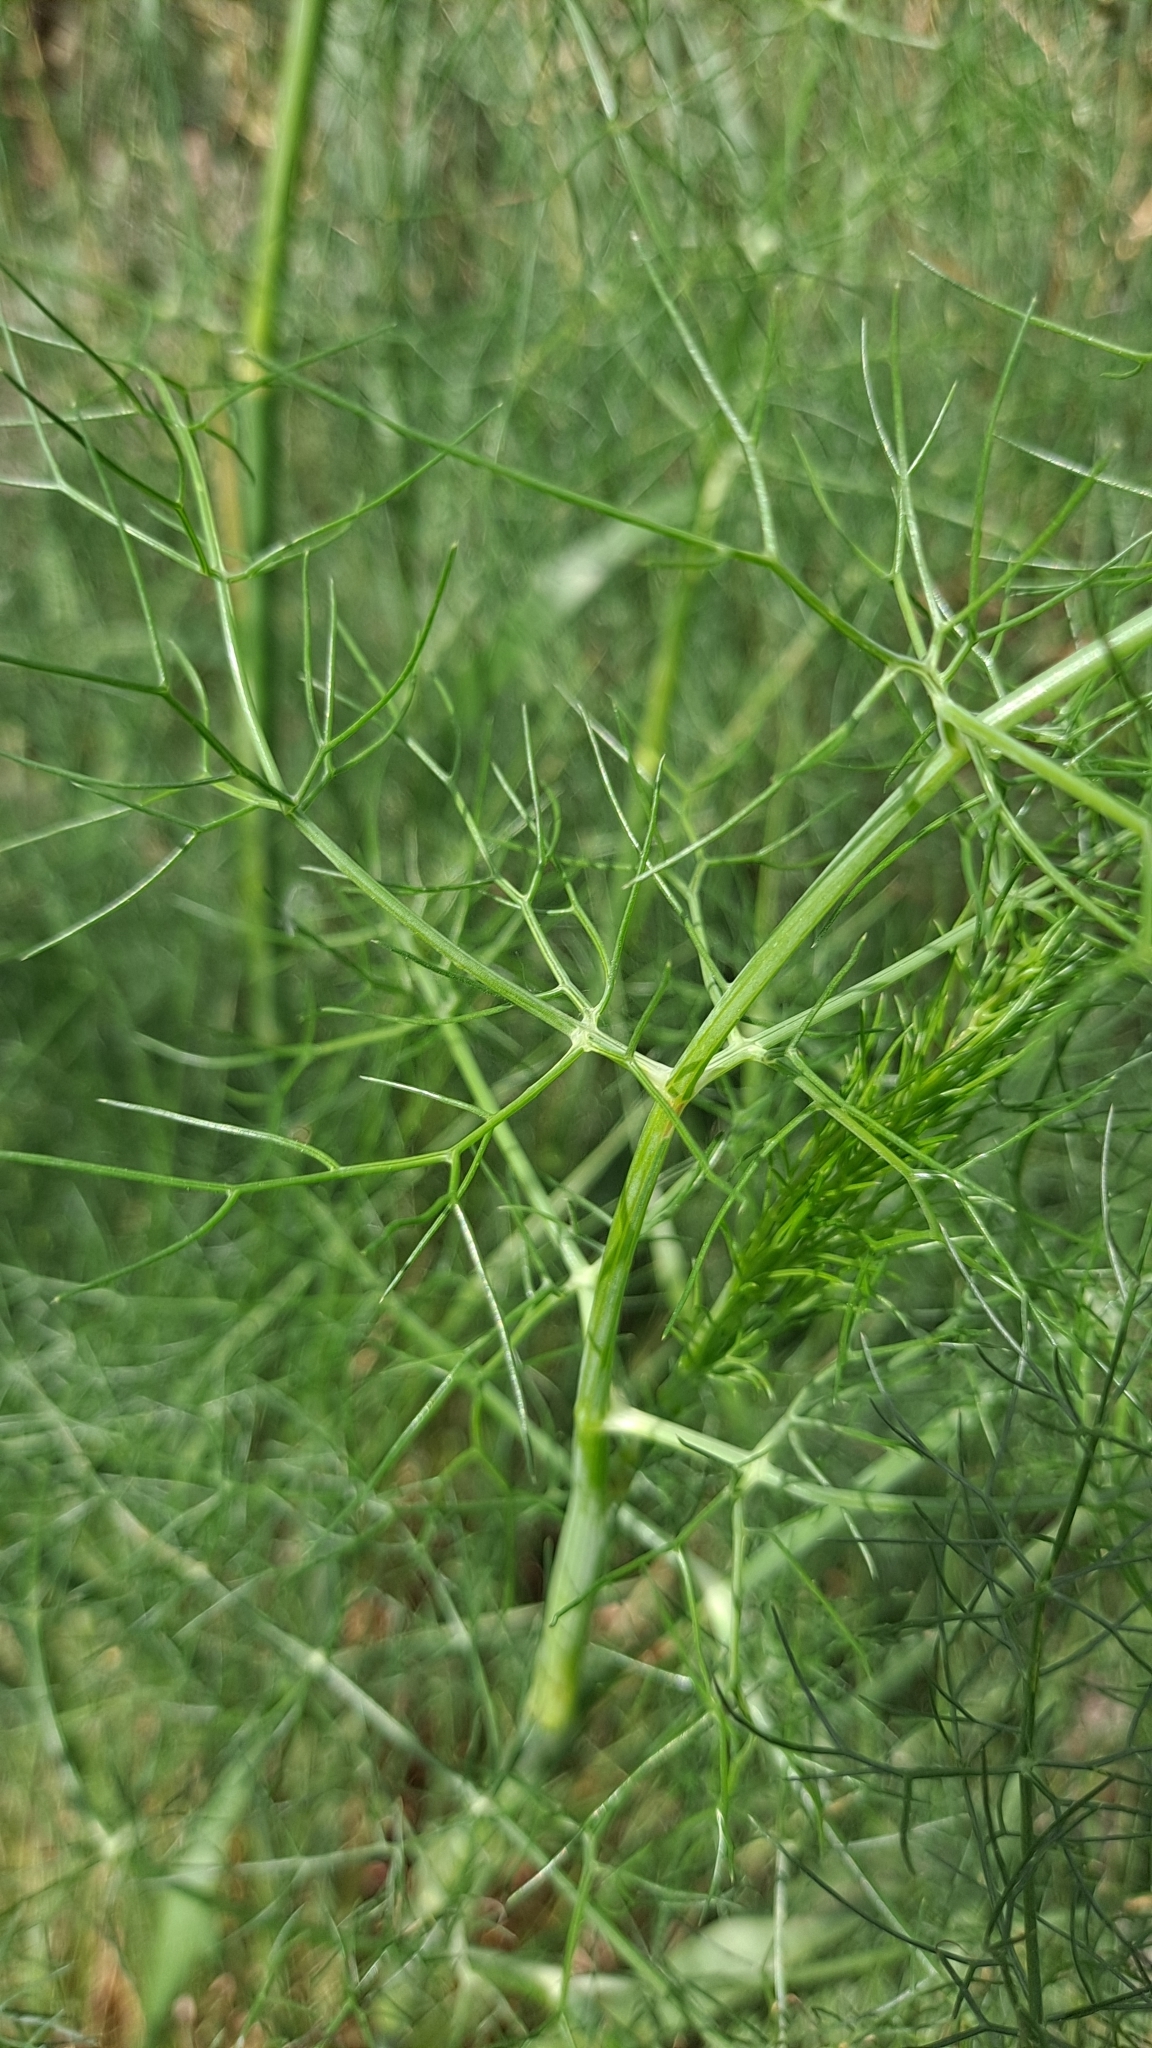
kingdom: Plantae
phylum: Tracheophyta
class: Magnoliopsida
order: Apiales
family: Apiaceae
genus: Foeniculum
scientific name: Foeniculum vulgare
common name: Fennel
